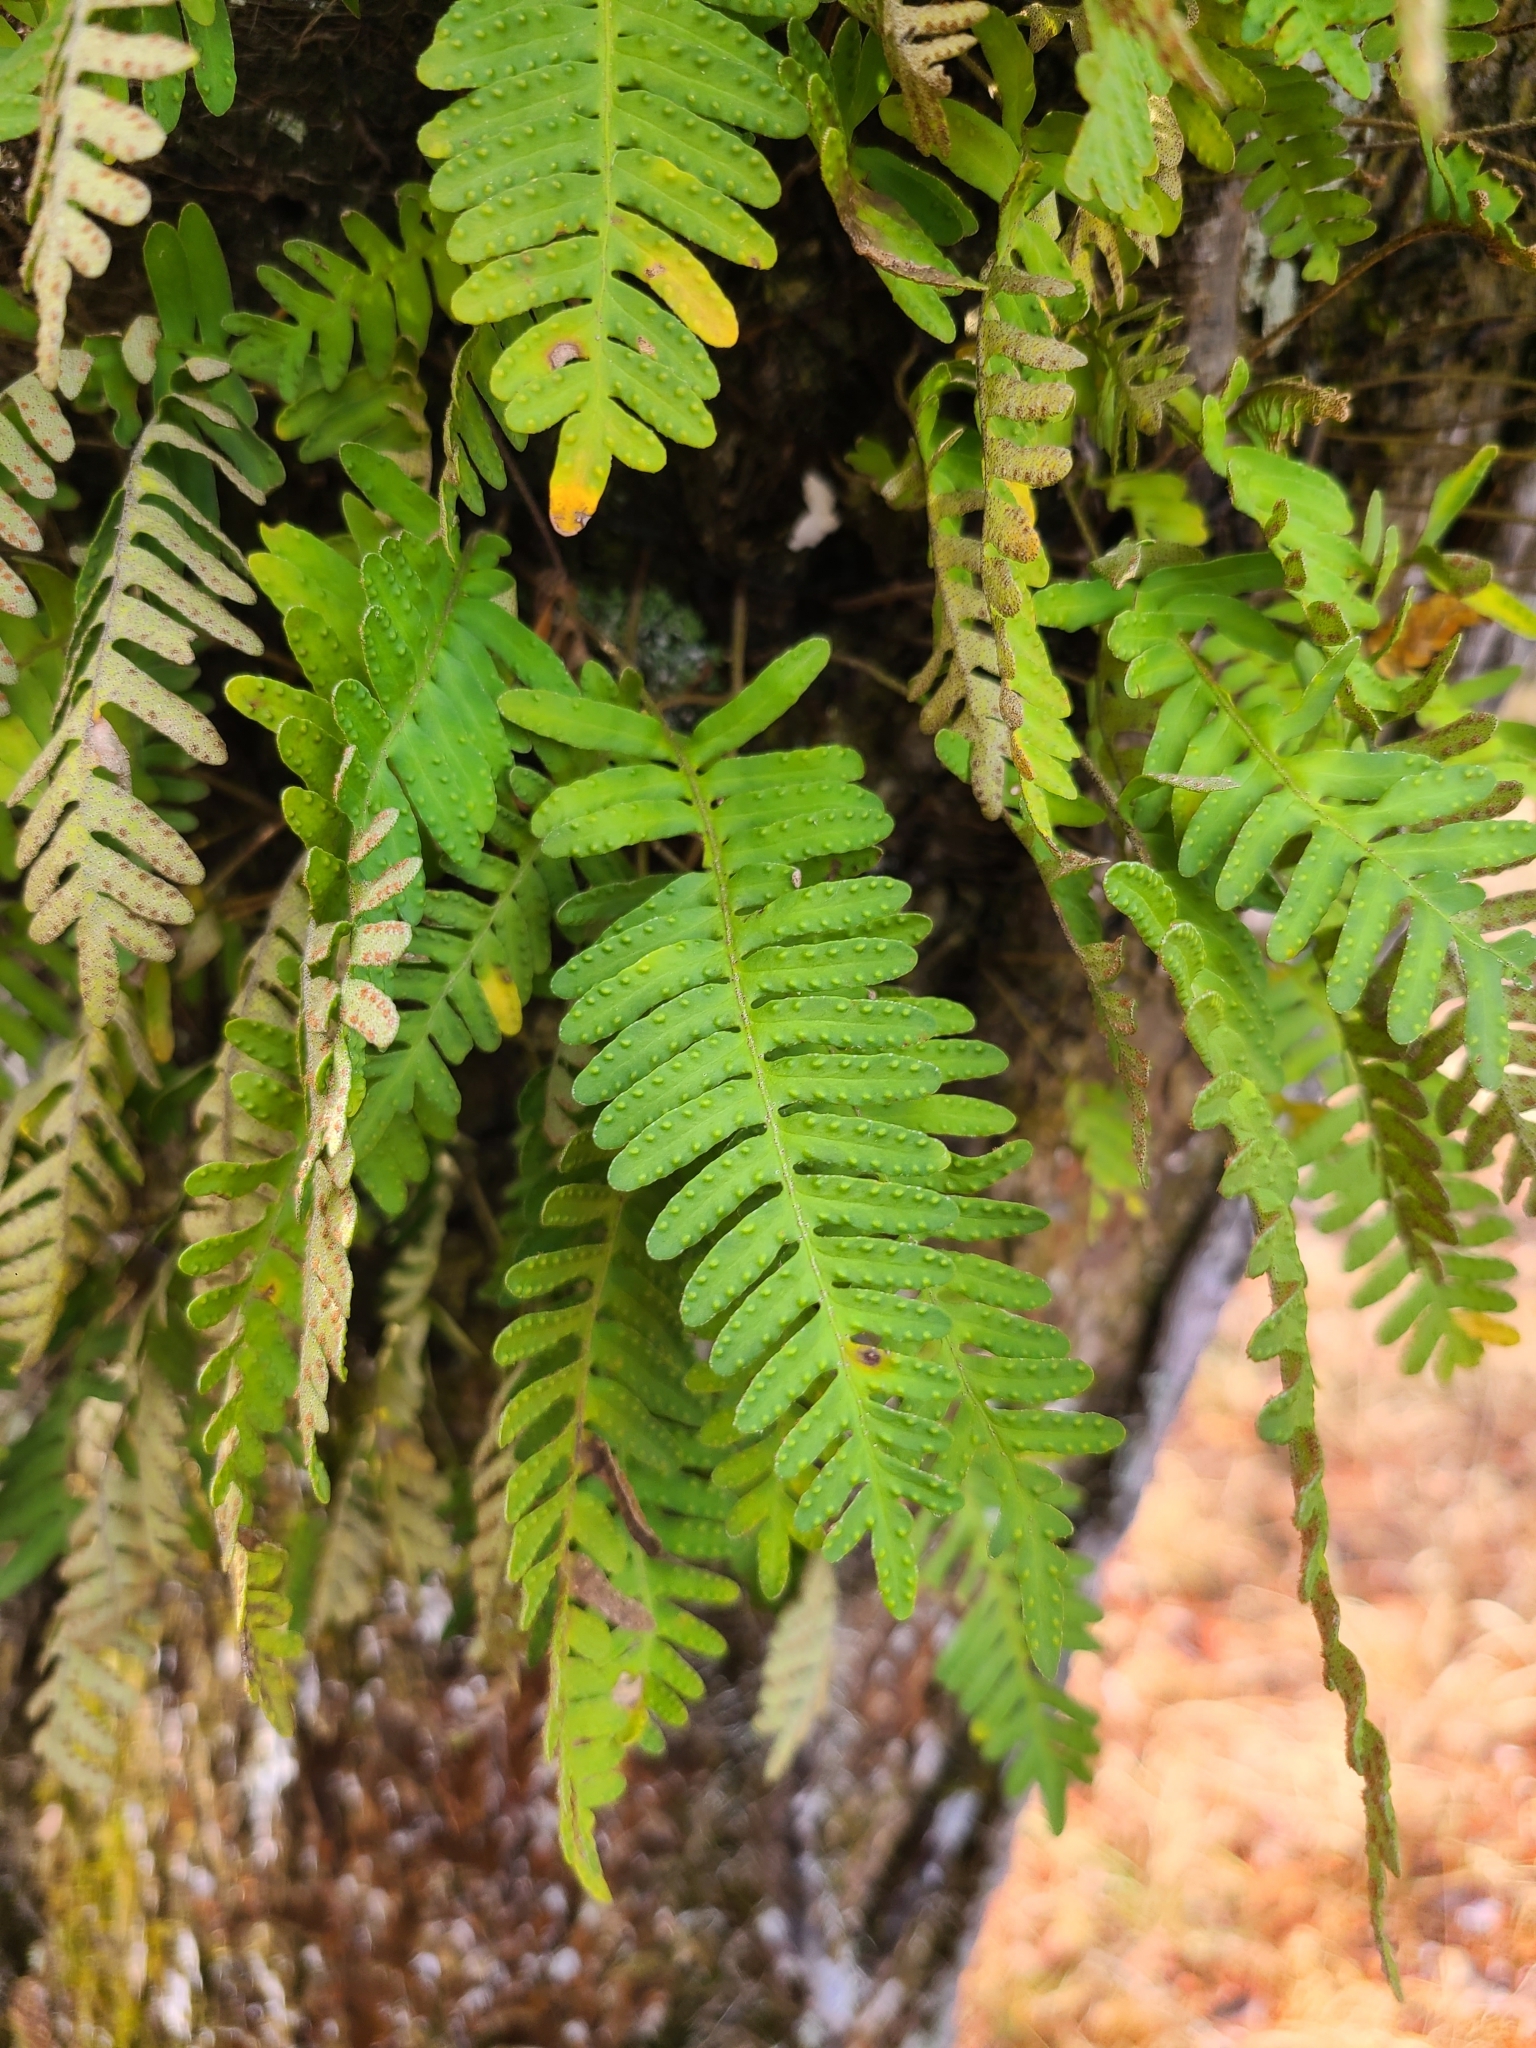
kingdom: Plantae
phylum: Tracheophyta
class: Polypodiopsida
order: Polypodiales
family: Polypodiaceae
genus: Pleopeltis
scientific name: Pleopeltis michauxiana
